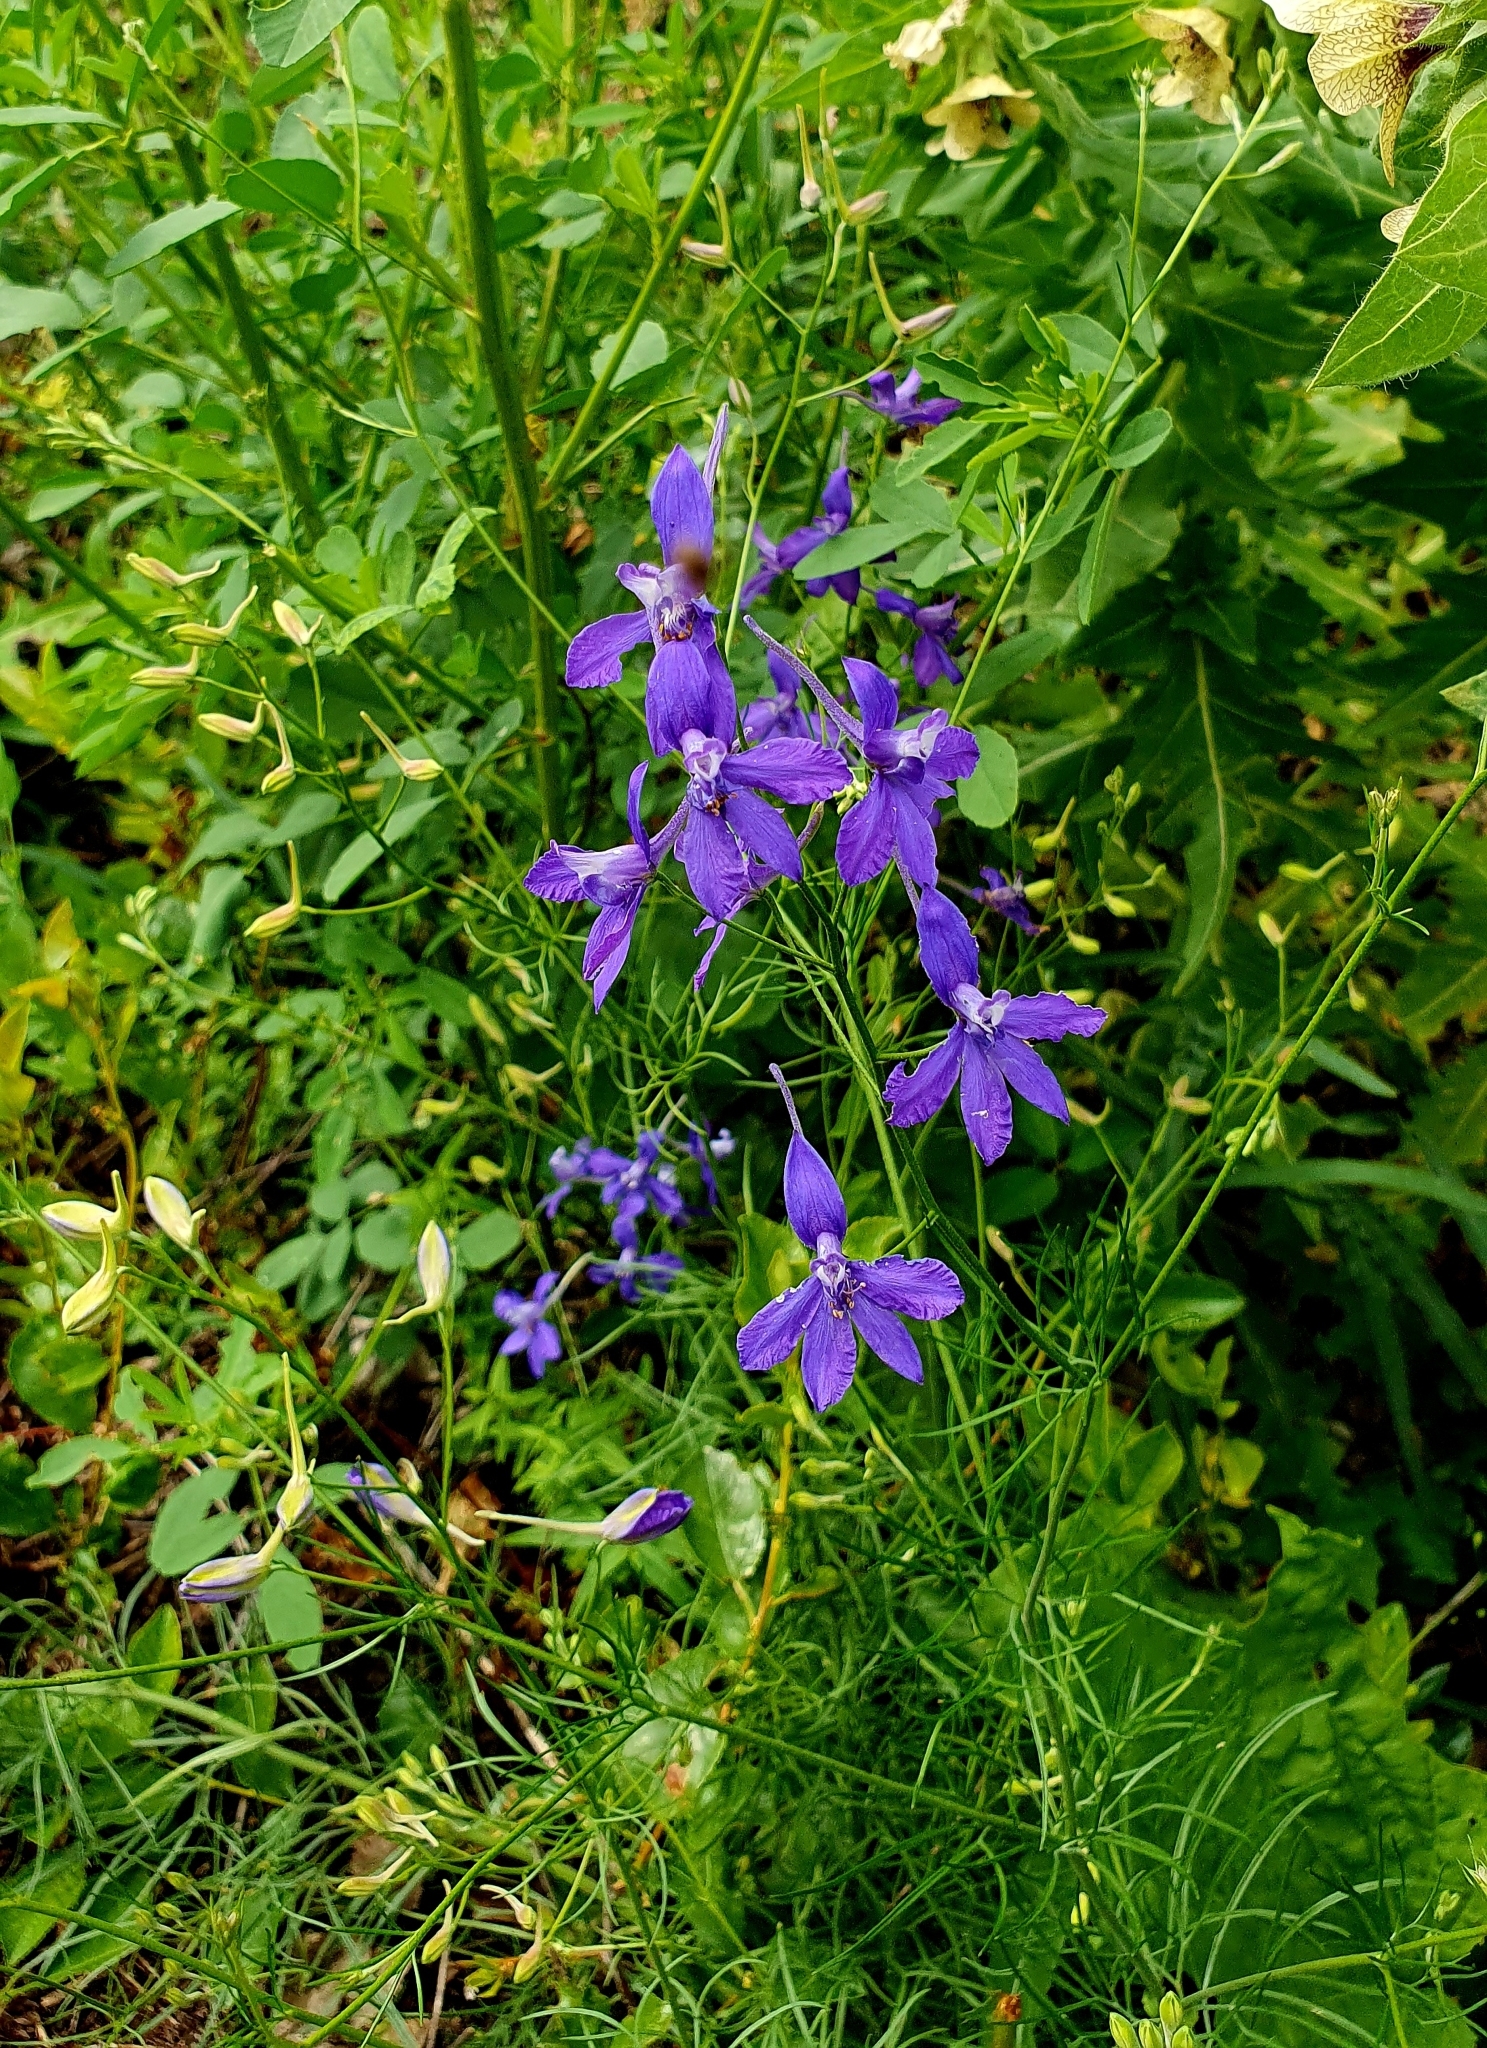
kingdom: Plantae
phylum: Tracheophyta
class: Magnoliopsida
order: Ranunculales
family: Ranunculaceae
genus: Delphinium
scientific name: Delphinium consolida
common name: Branching larkspur
